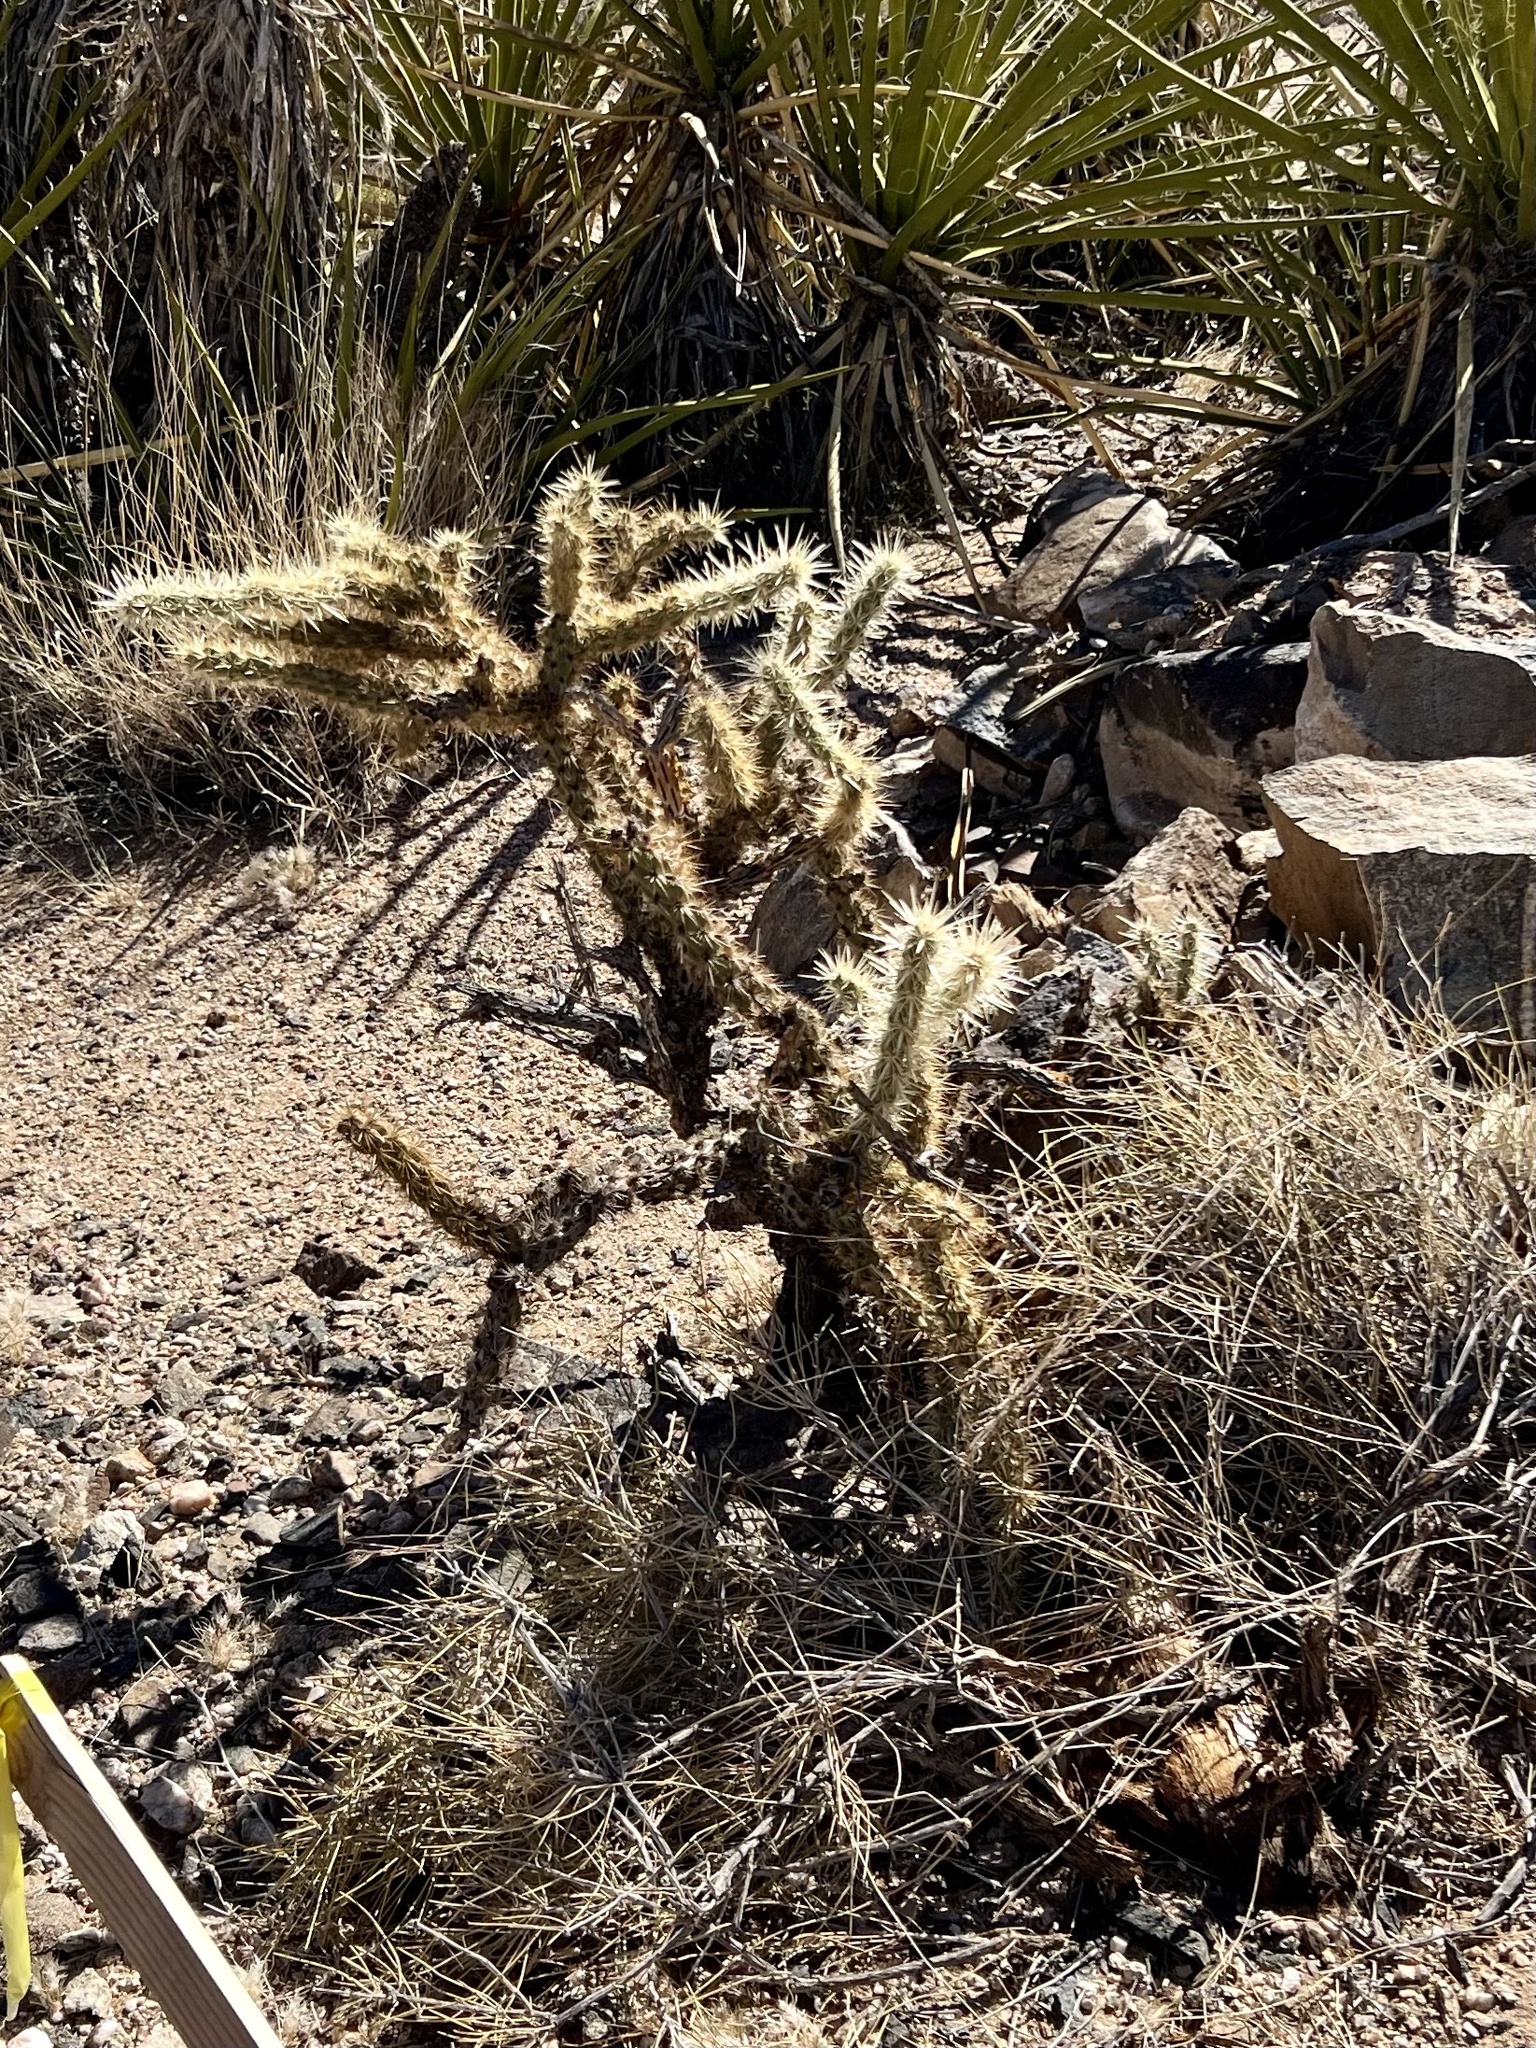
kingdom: Plantae
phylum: Tracheophyta
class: Magnoliopsida
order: Caryophyllales
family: Cactaceae
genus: Cylindropuntia
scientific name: Cylindropuntia acanthocarpa
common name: Buckhorn cholla
